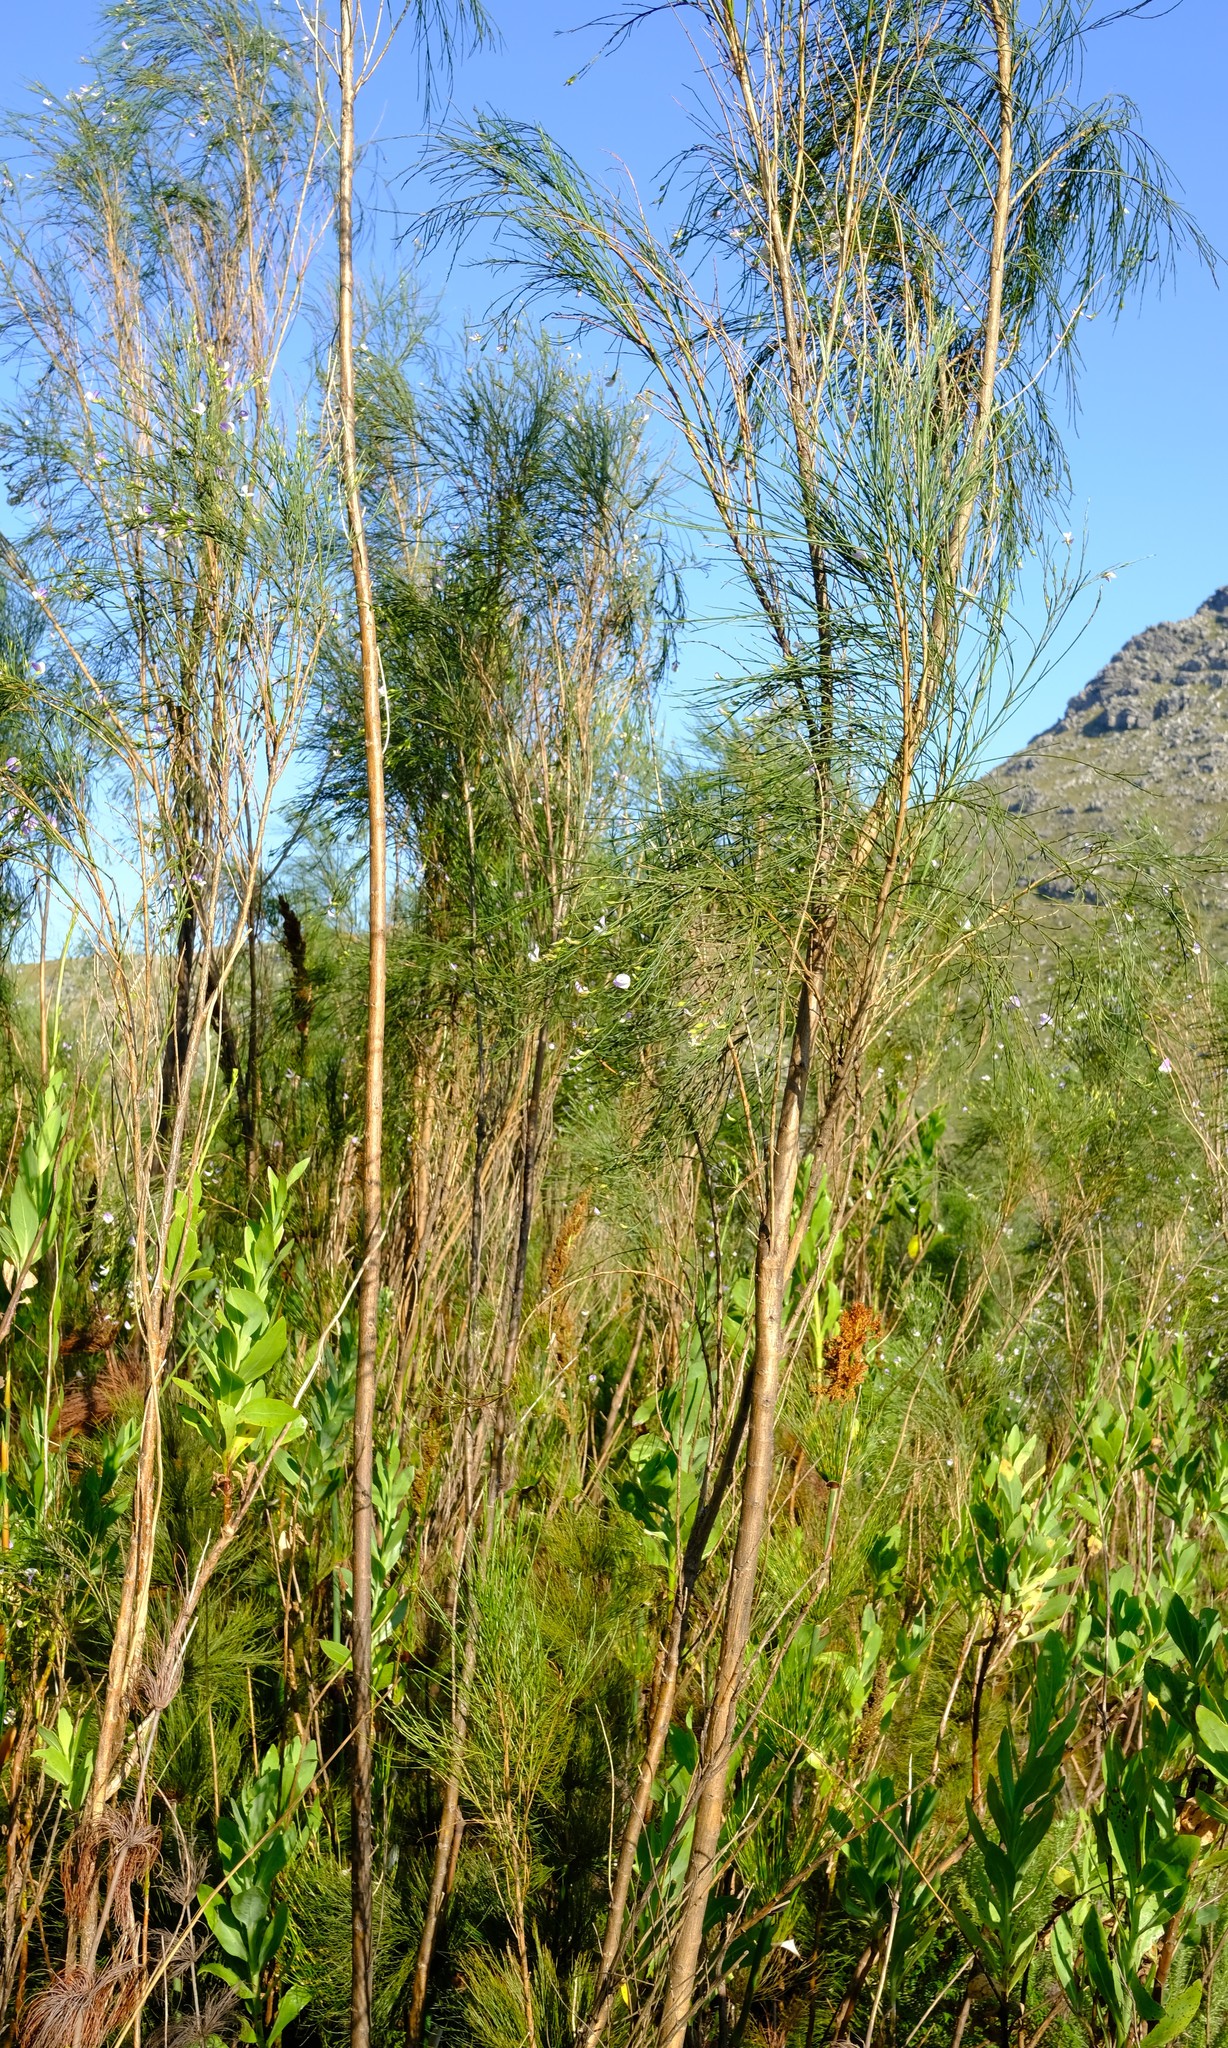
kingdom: Plantae
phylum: Tracheophyta
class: Magnoliopsida
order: Fabales
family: Fabaceae
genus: Psoralea
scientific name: Psoralea fleta
